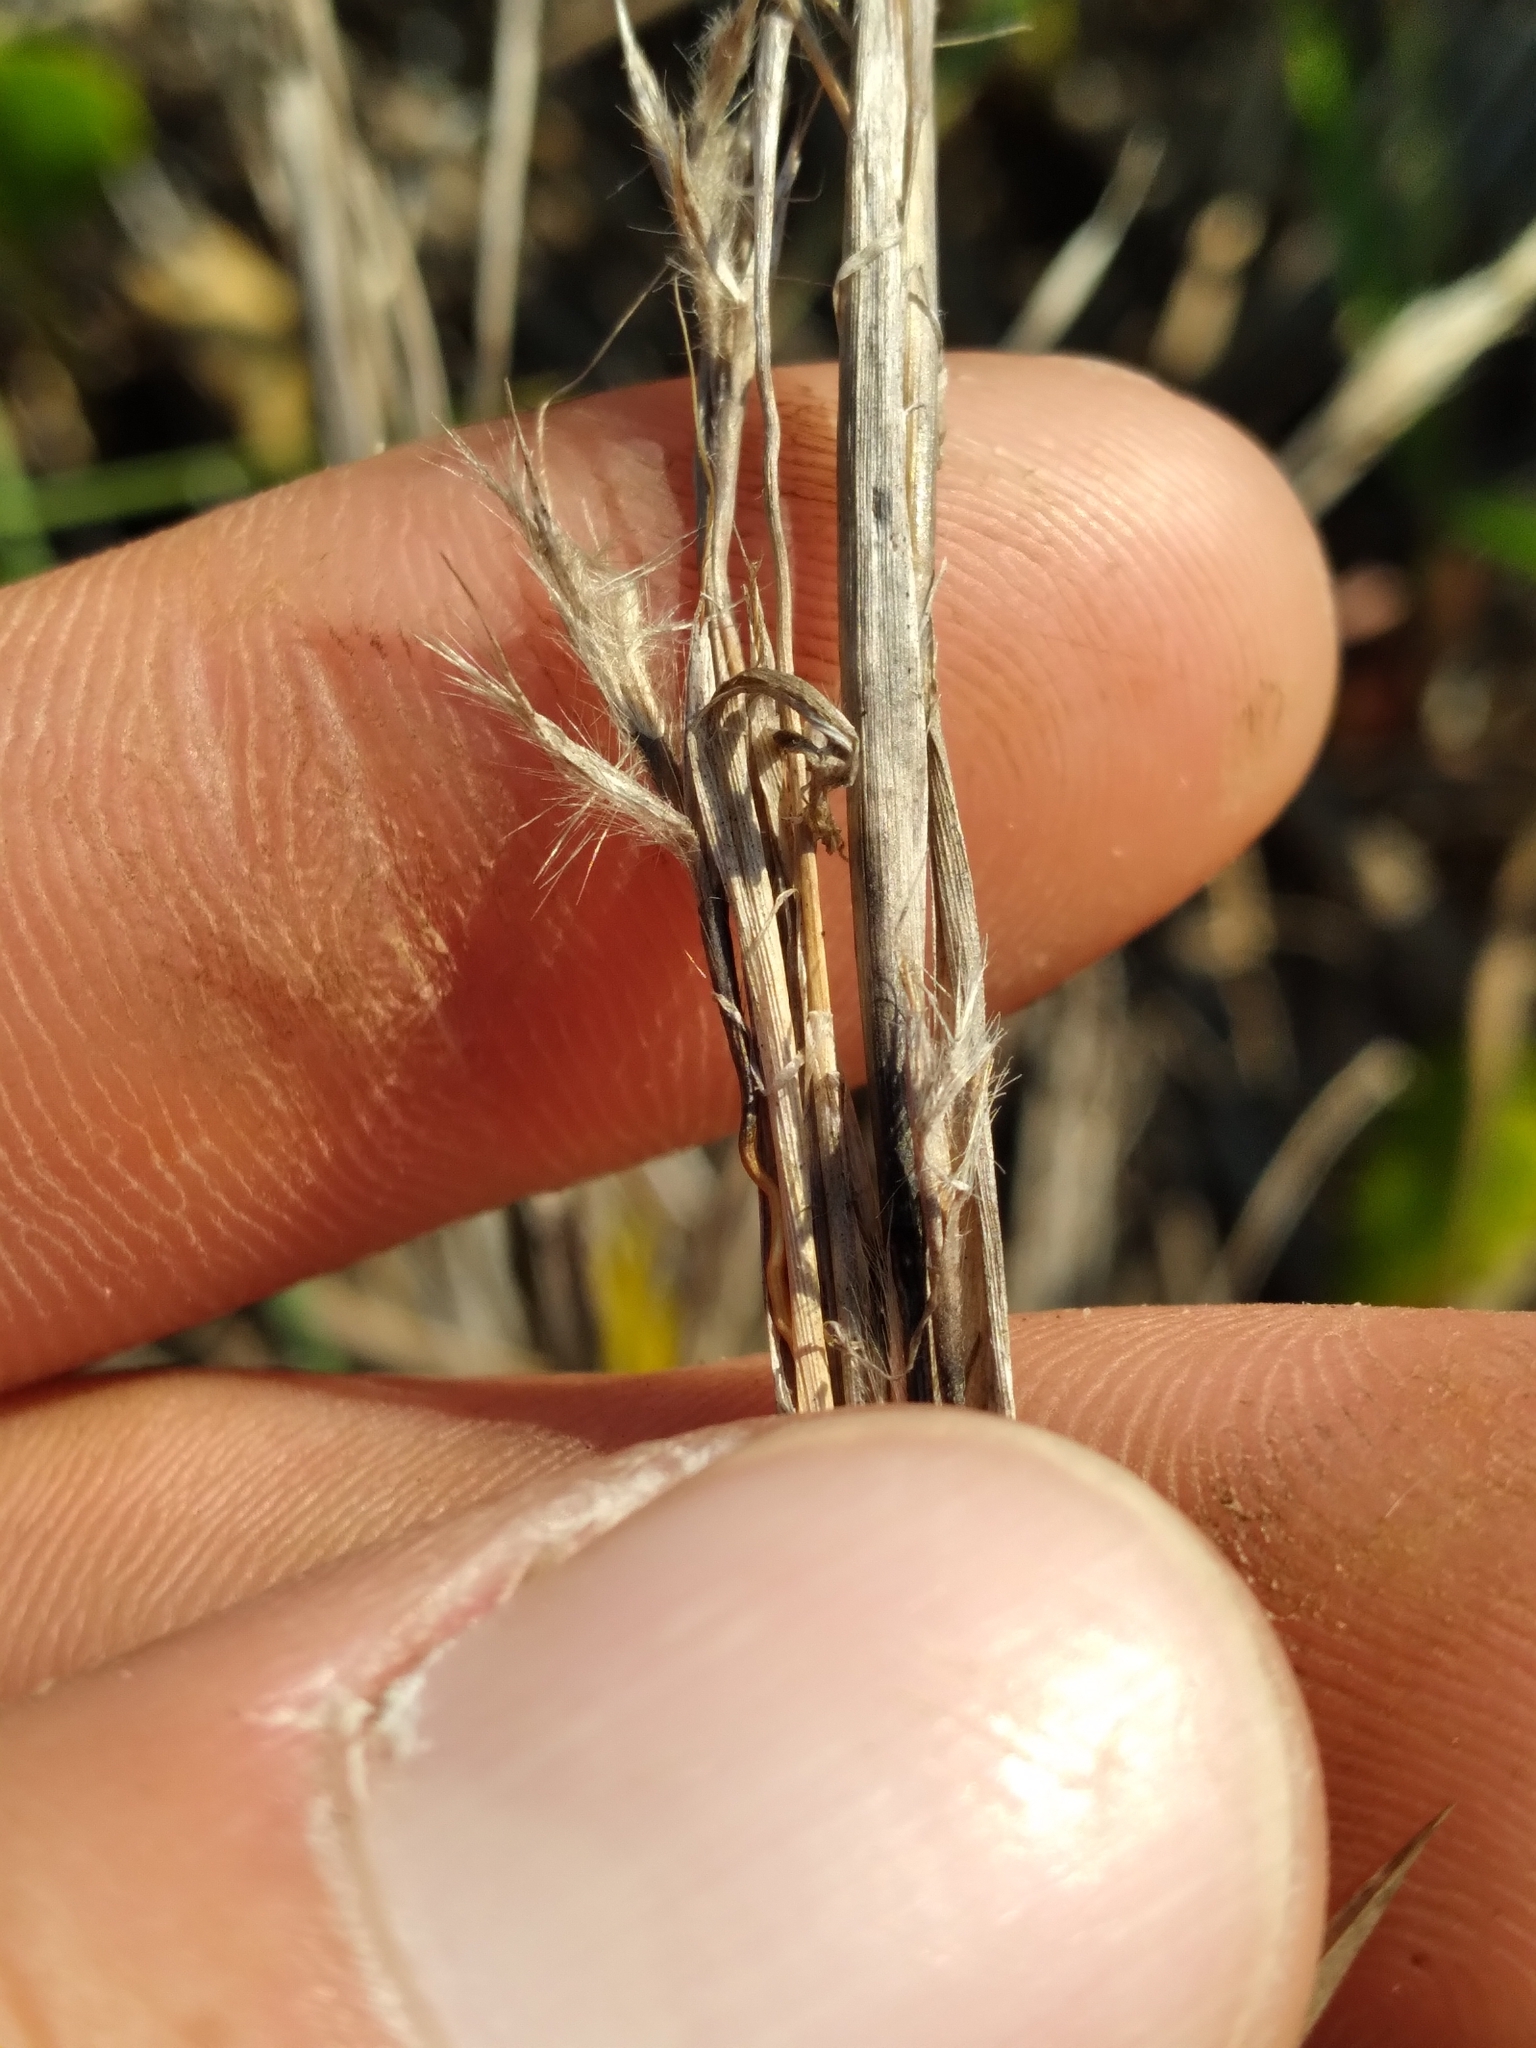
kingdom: Plantae
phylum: Tracheophyta
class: Liliopsida
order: Poales
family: Poaceae
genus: Schizachyrium
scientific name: Schizachyrium scoparium
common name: Little bluestem
